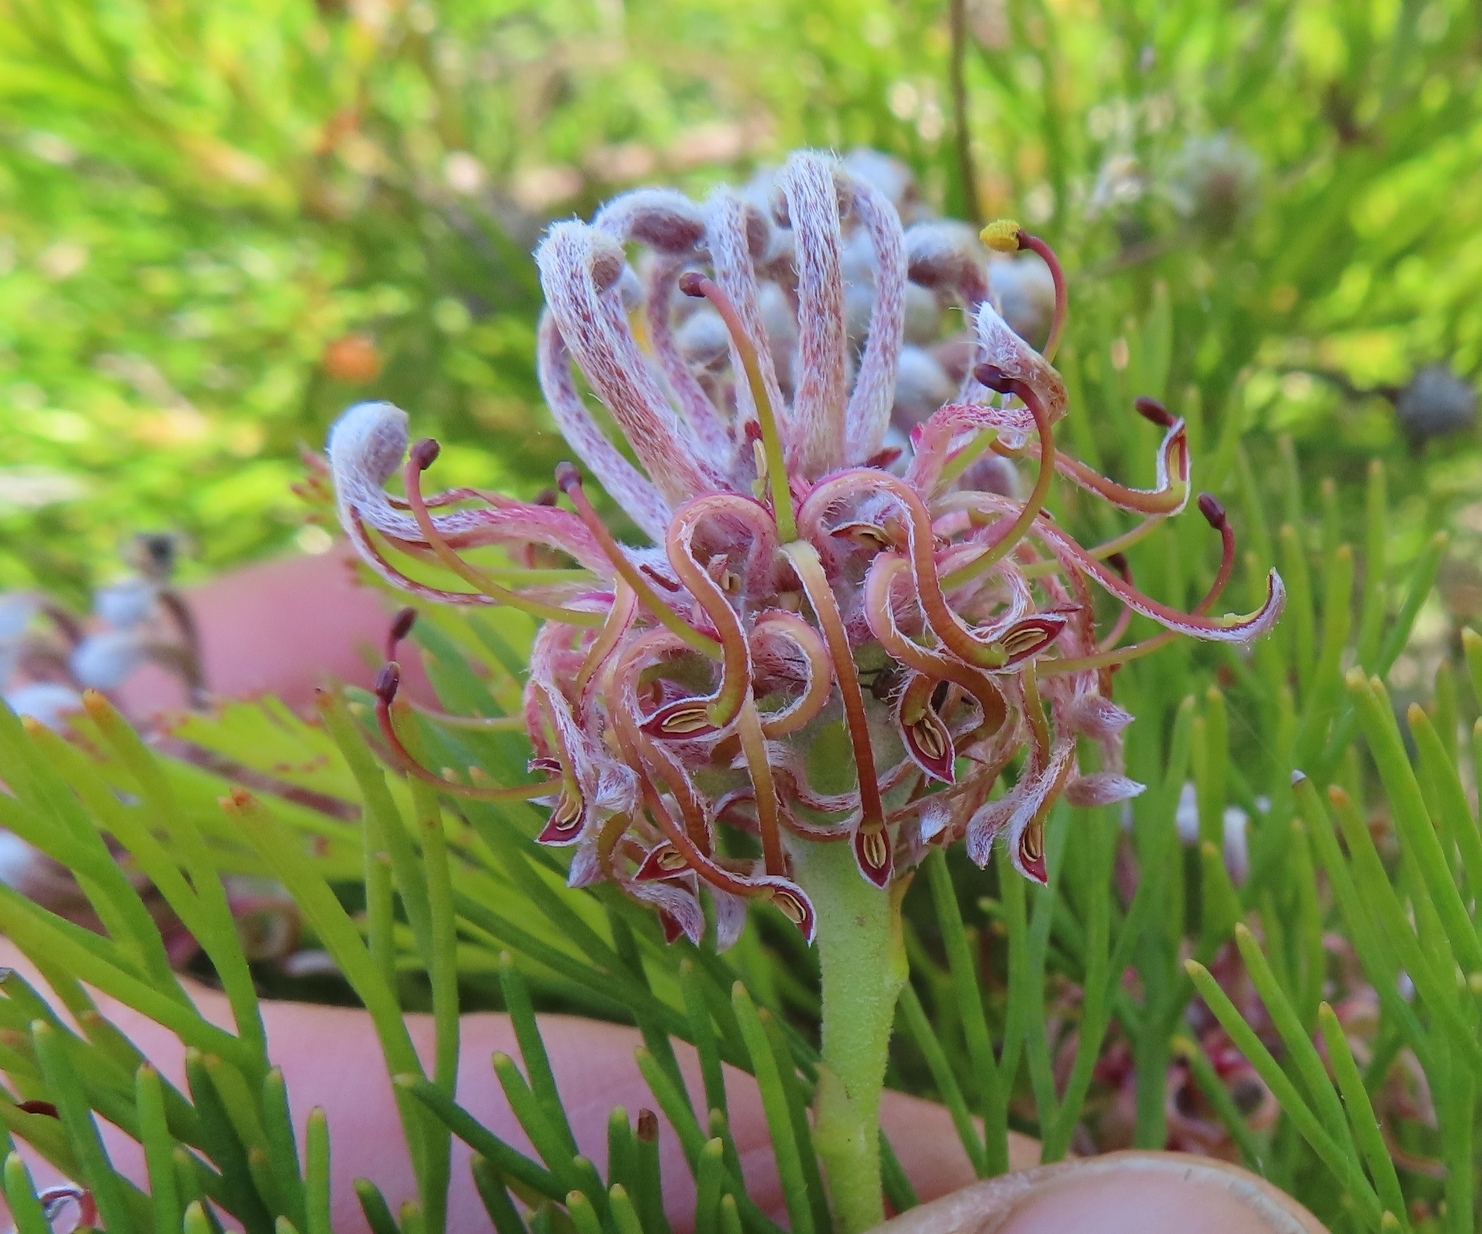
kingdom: Plantae
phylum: Tracheophyta
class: Magnoliopsida
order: Proteales
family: Proteaceae
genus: Serruria
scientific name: Serruria
